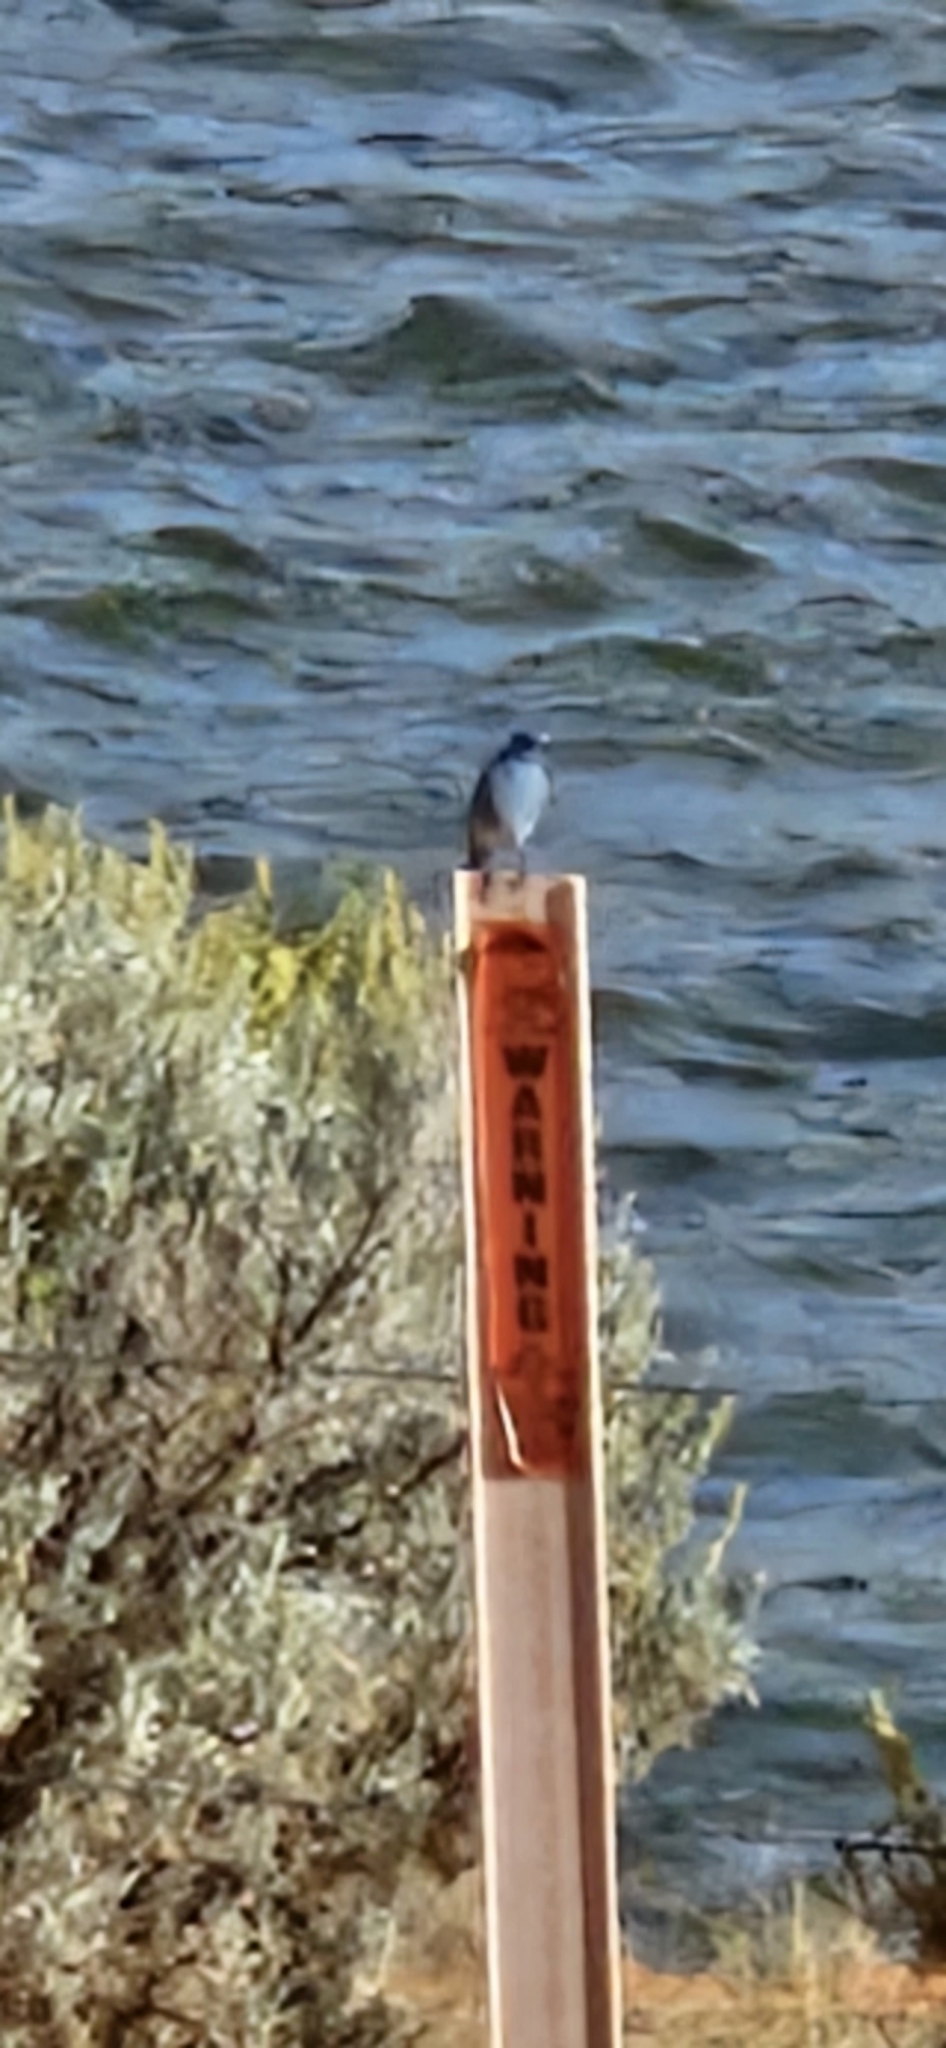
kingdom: Animalia
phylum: Chordata
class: Aves
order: Passeriformes
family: Turdidae
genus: Sialia
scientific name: Sialia currucoides
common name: Mountain bluebird
